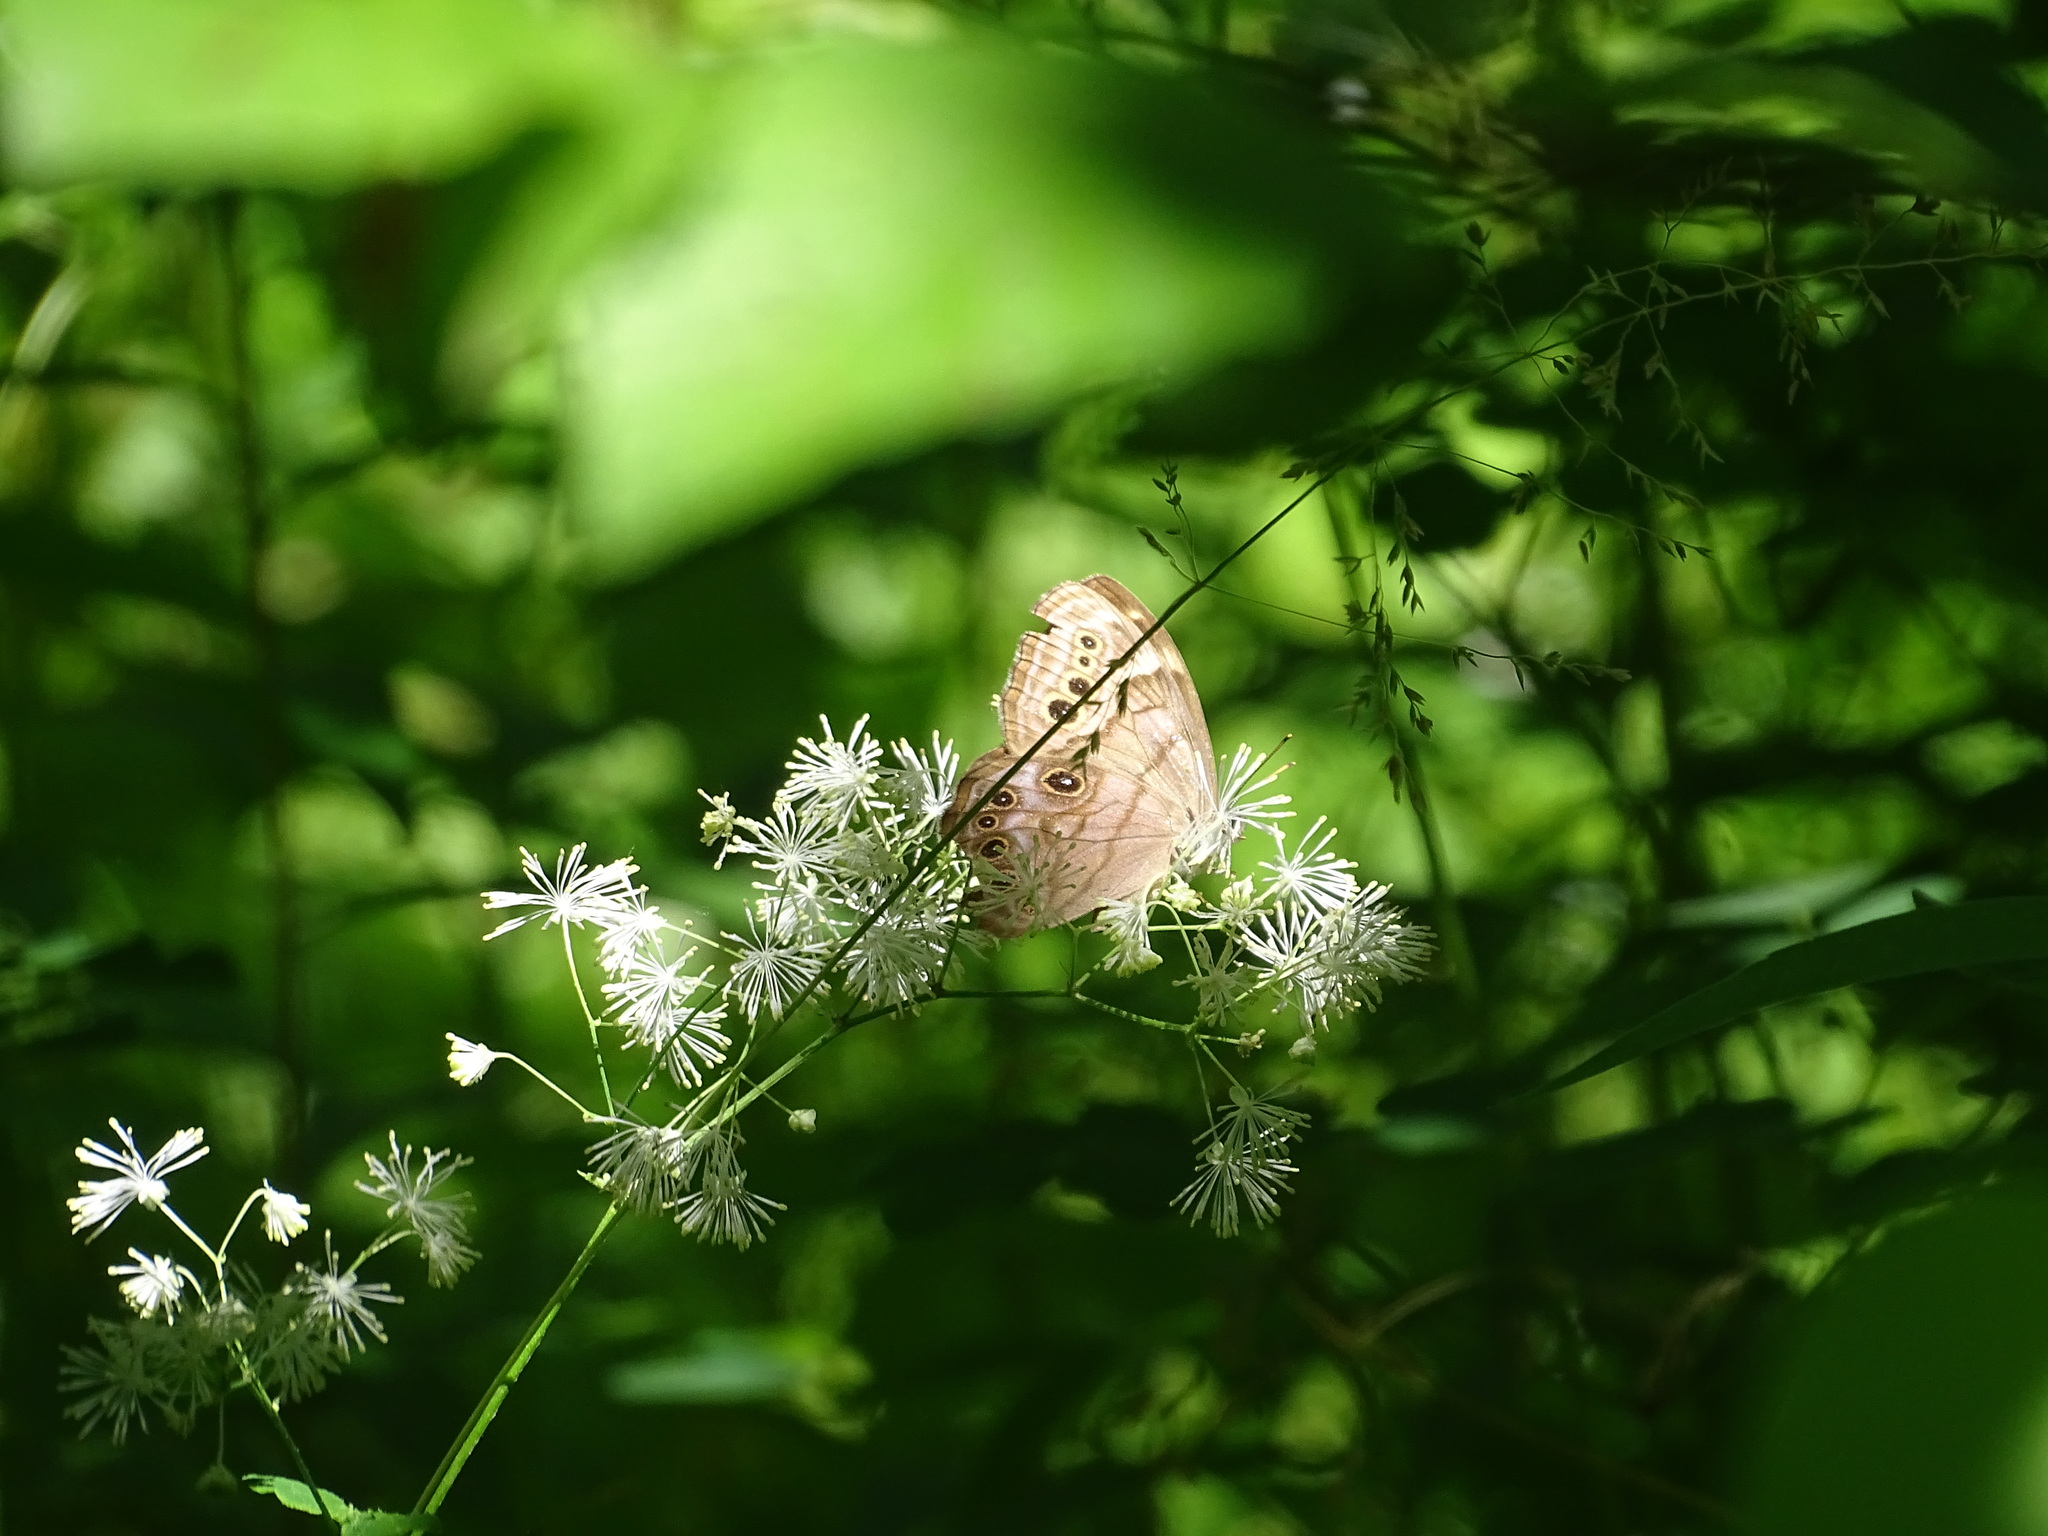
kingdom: Animalia
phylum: Arthropoda
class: Insecta
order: Lepidoptera
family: Nymphalidae
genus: Lethe
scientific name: Lethe anthedon
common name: Northern pearly-eye
